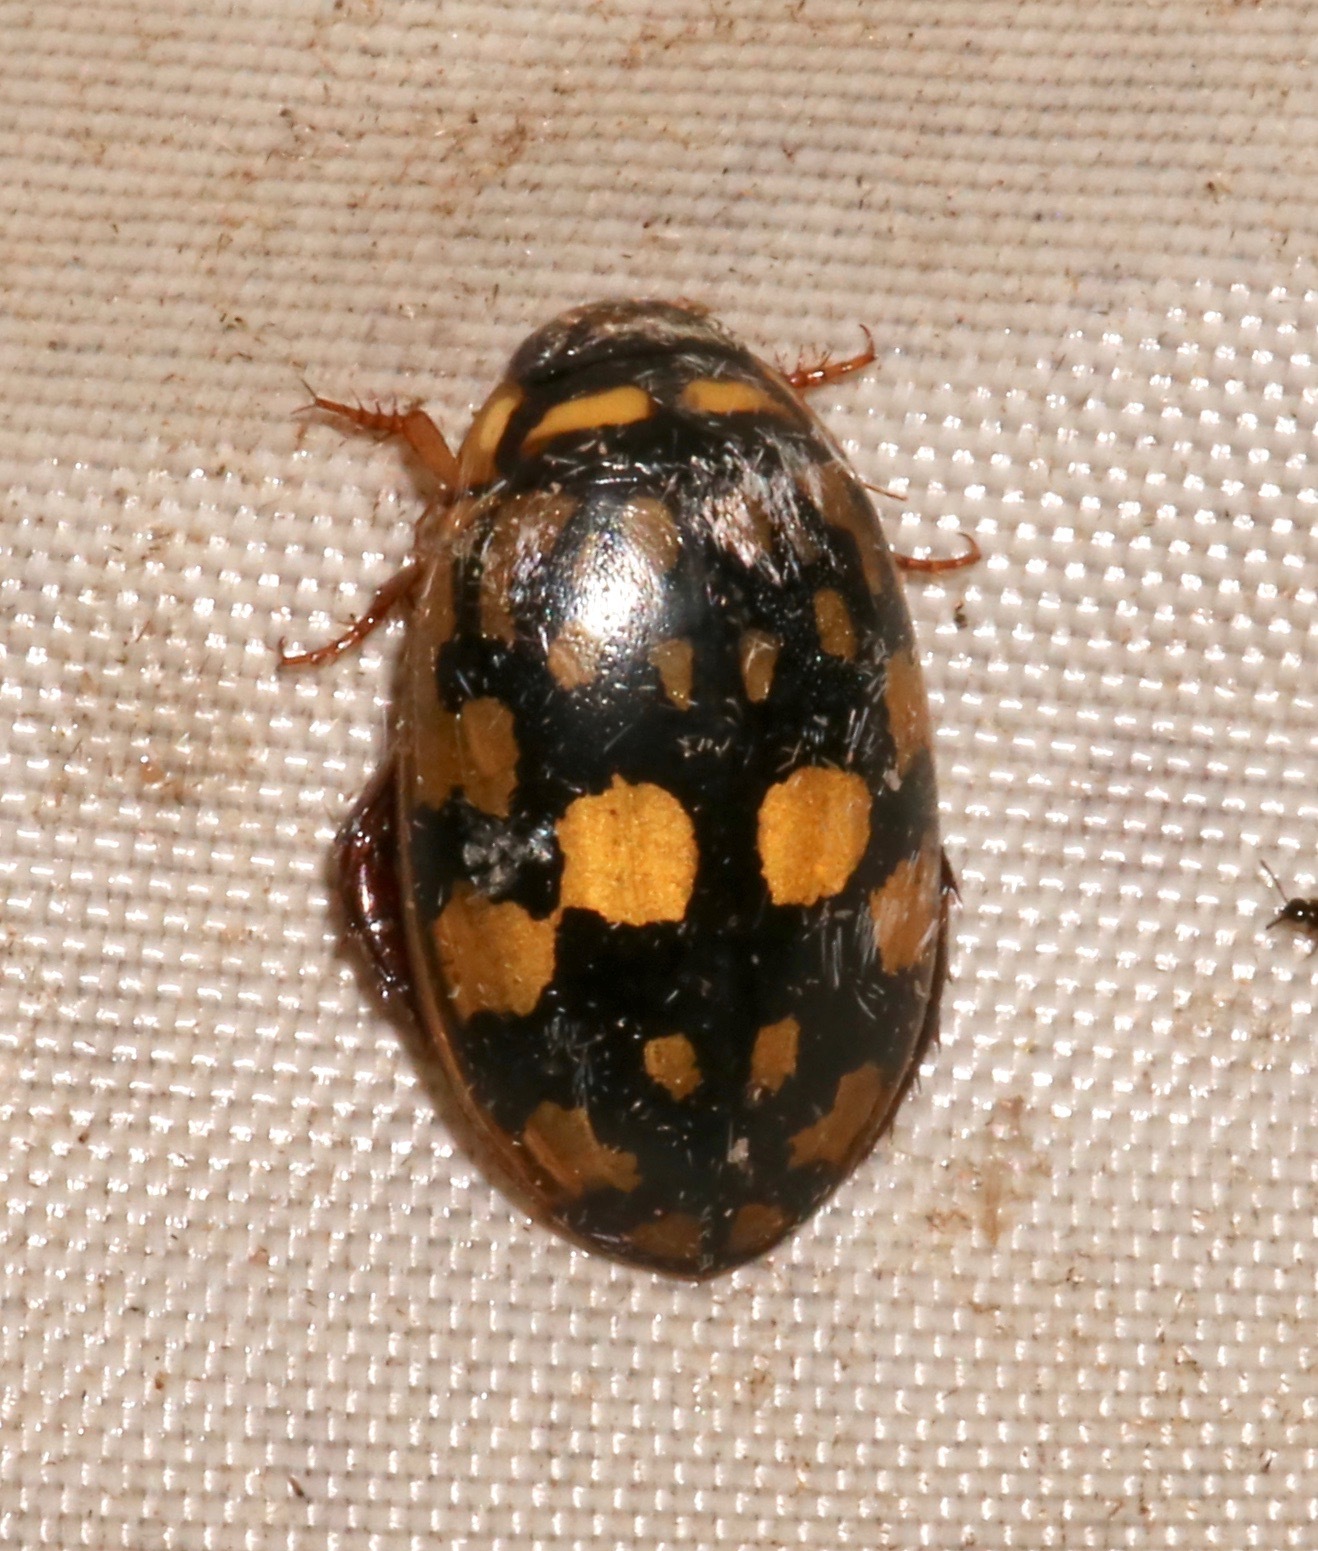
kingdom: Animalia
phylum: Arthropoda
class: Insecta
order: Coleoptera
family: Dytiscidae
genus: Thermonectus
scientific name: Thermonectus marmoratus
